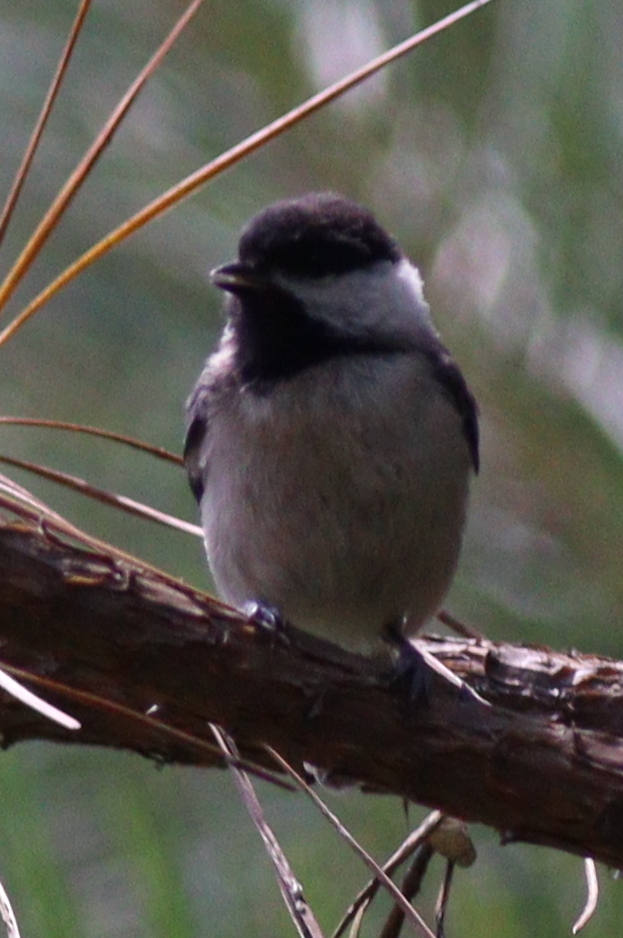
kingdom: Animalia
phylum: Chordata
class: Aves
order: Passeriformes
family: Paridae
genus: Poecile
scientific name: Poecile carolinensis
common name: Carolina chickadee
